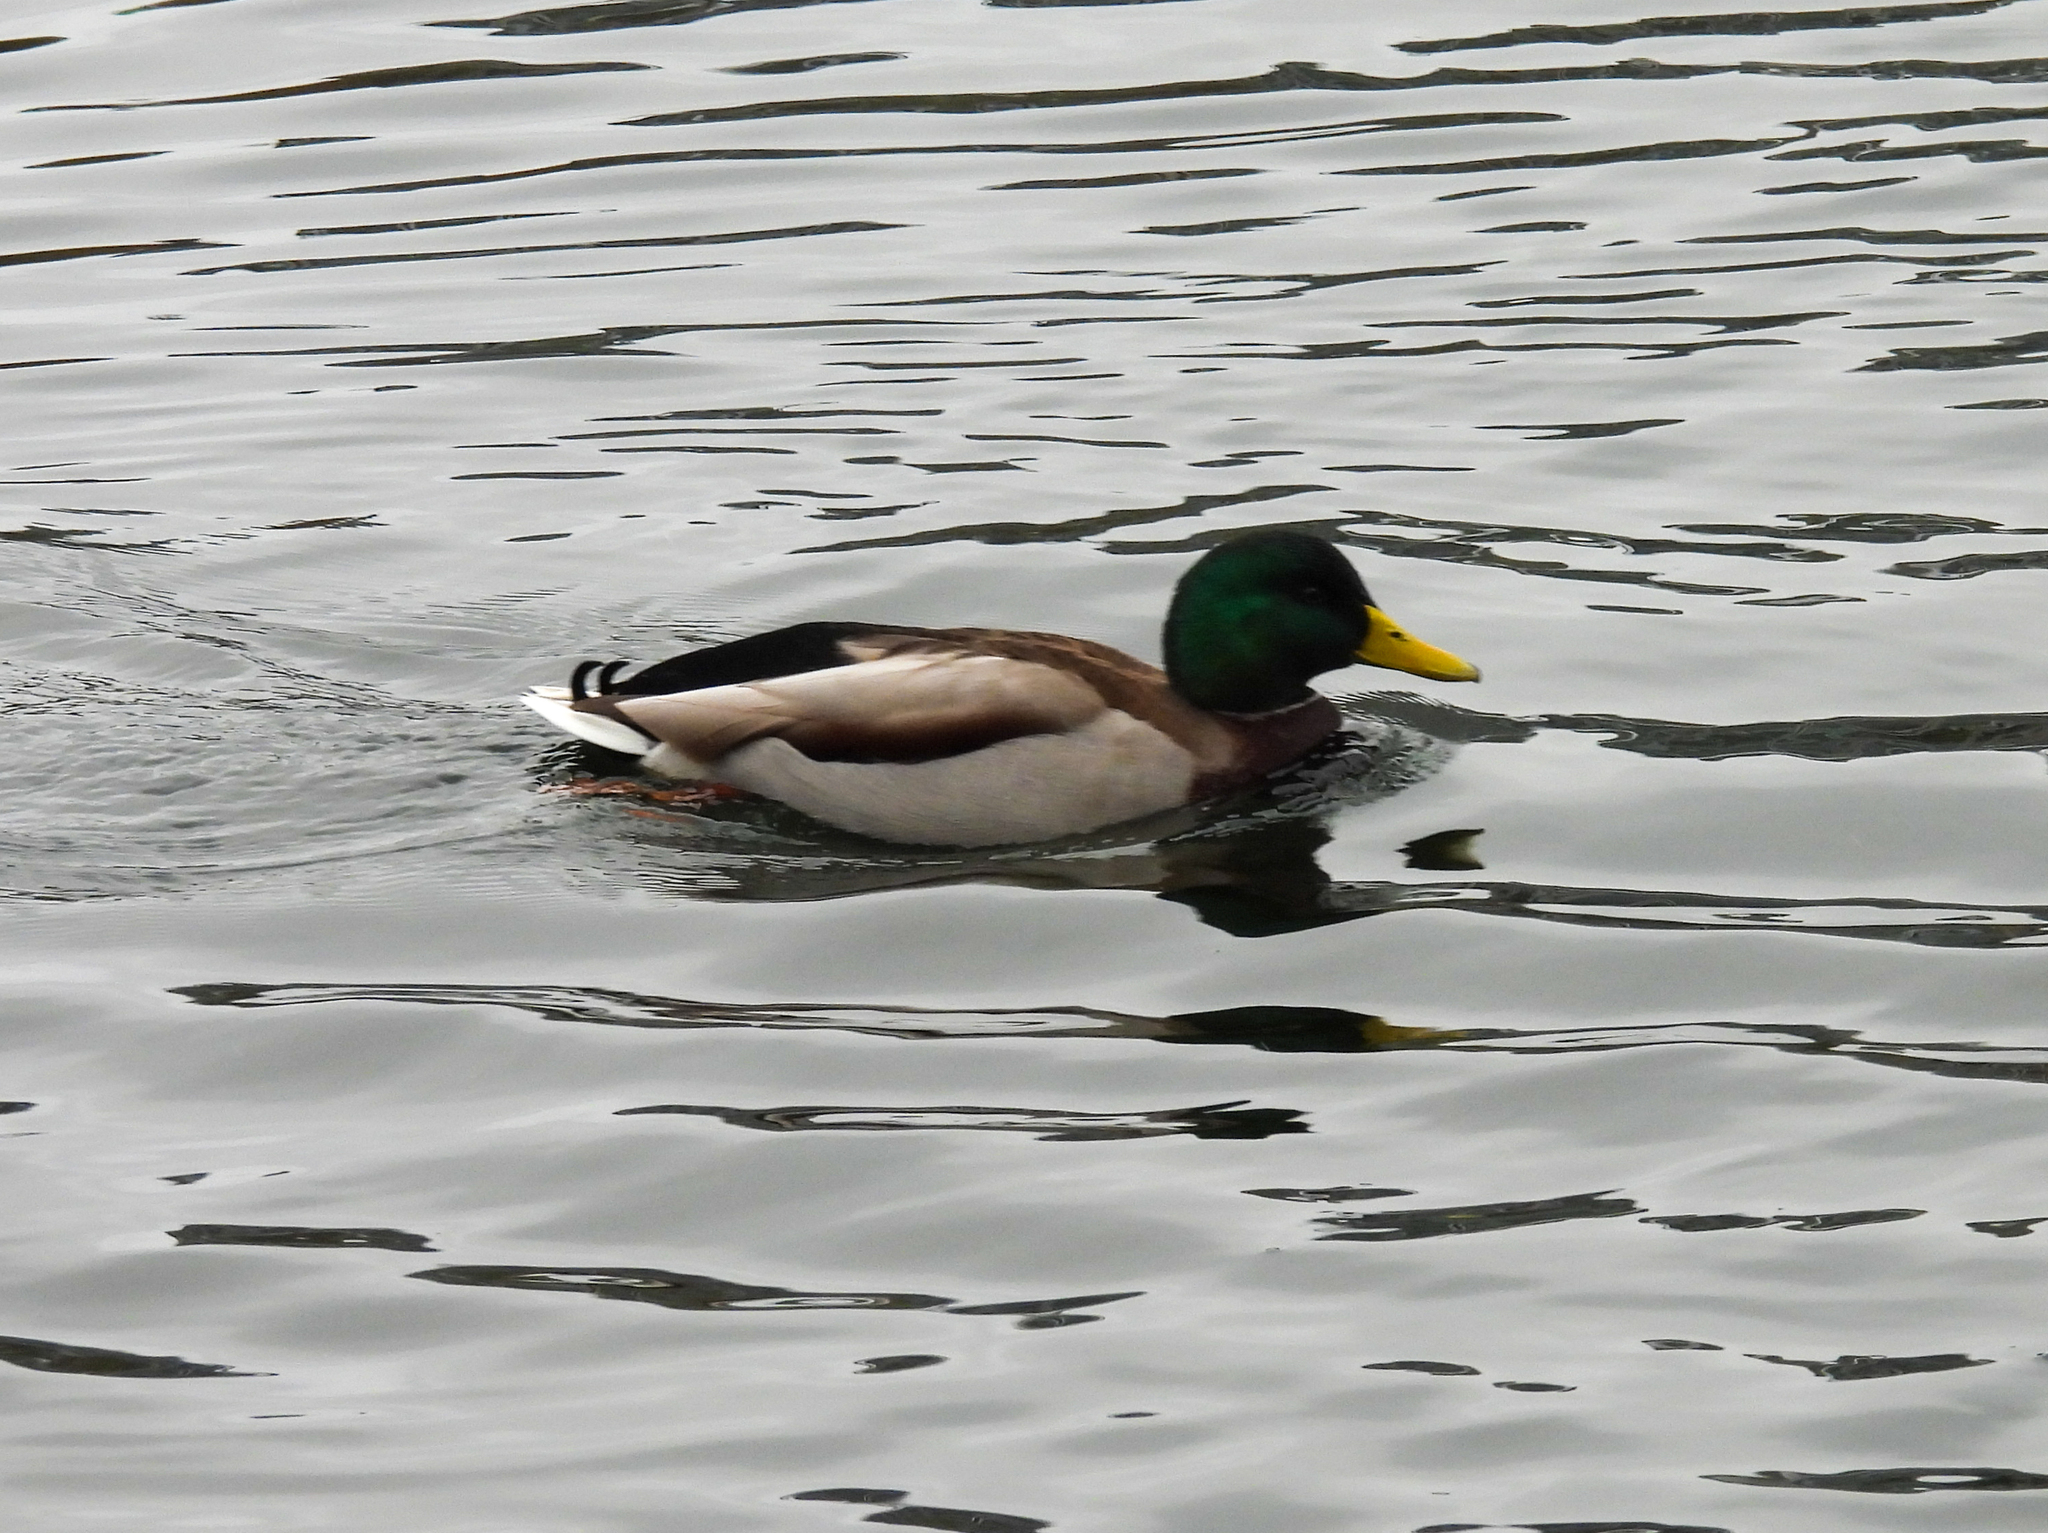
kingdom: Animalia
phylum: Chordata
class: Aves
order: Anseriformes
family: Anatidae
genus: Anas
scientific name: Anas platyrhynchos
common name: Mallard
